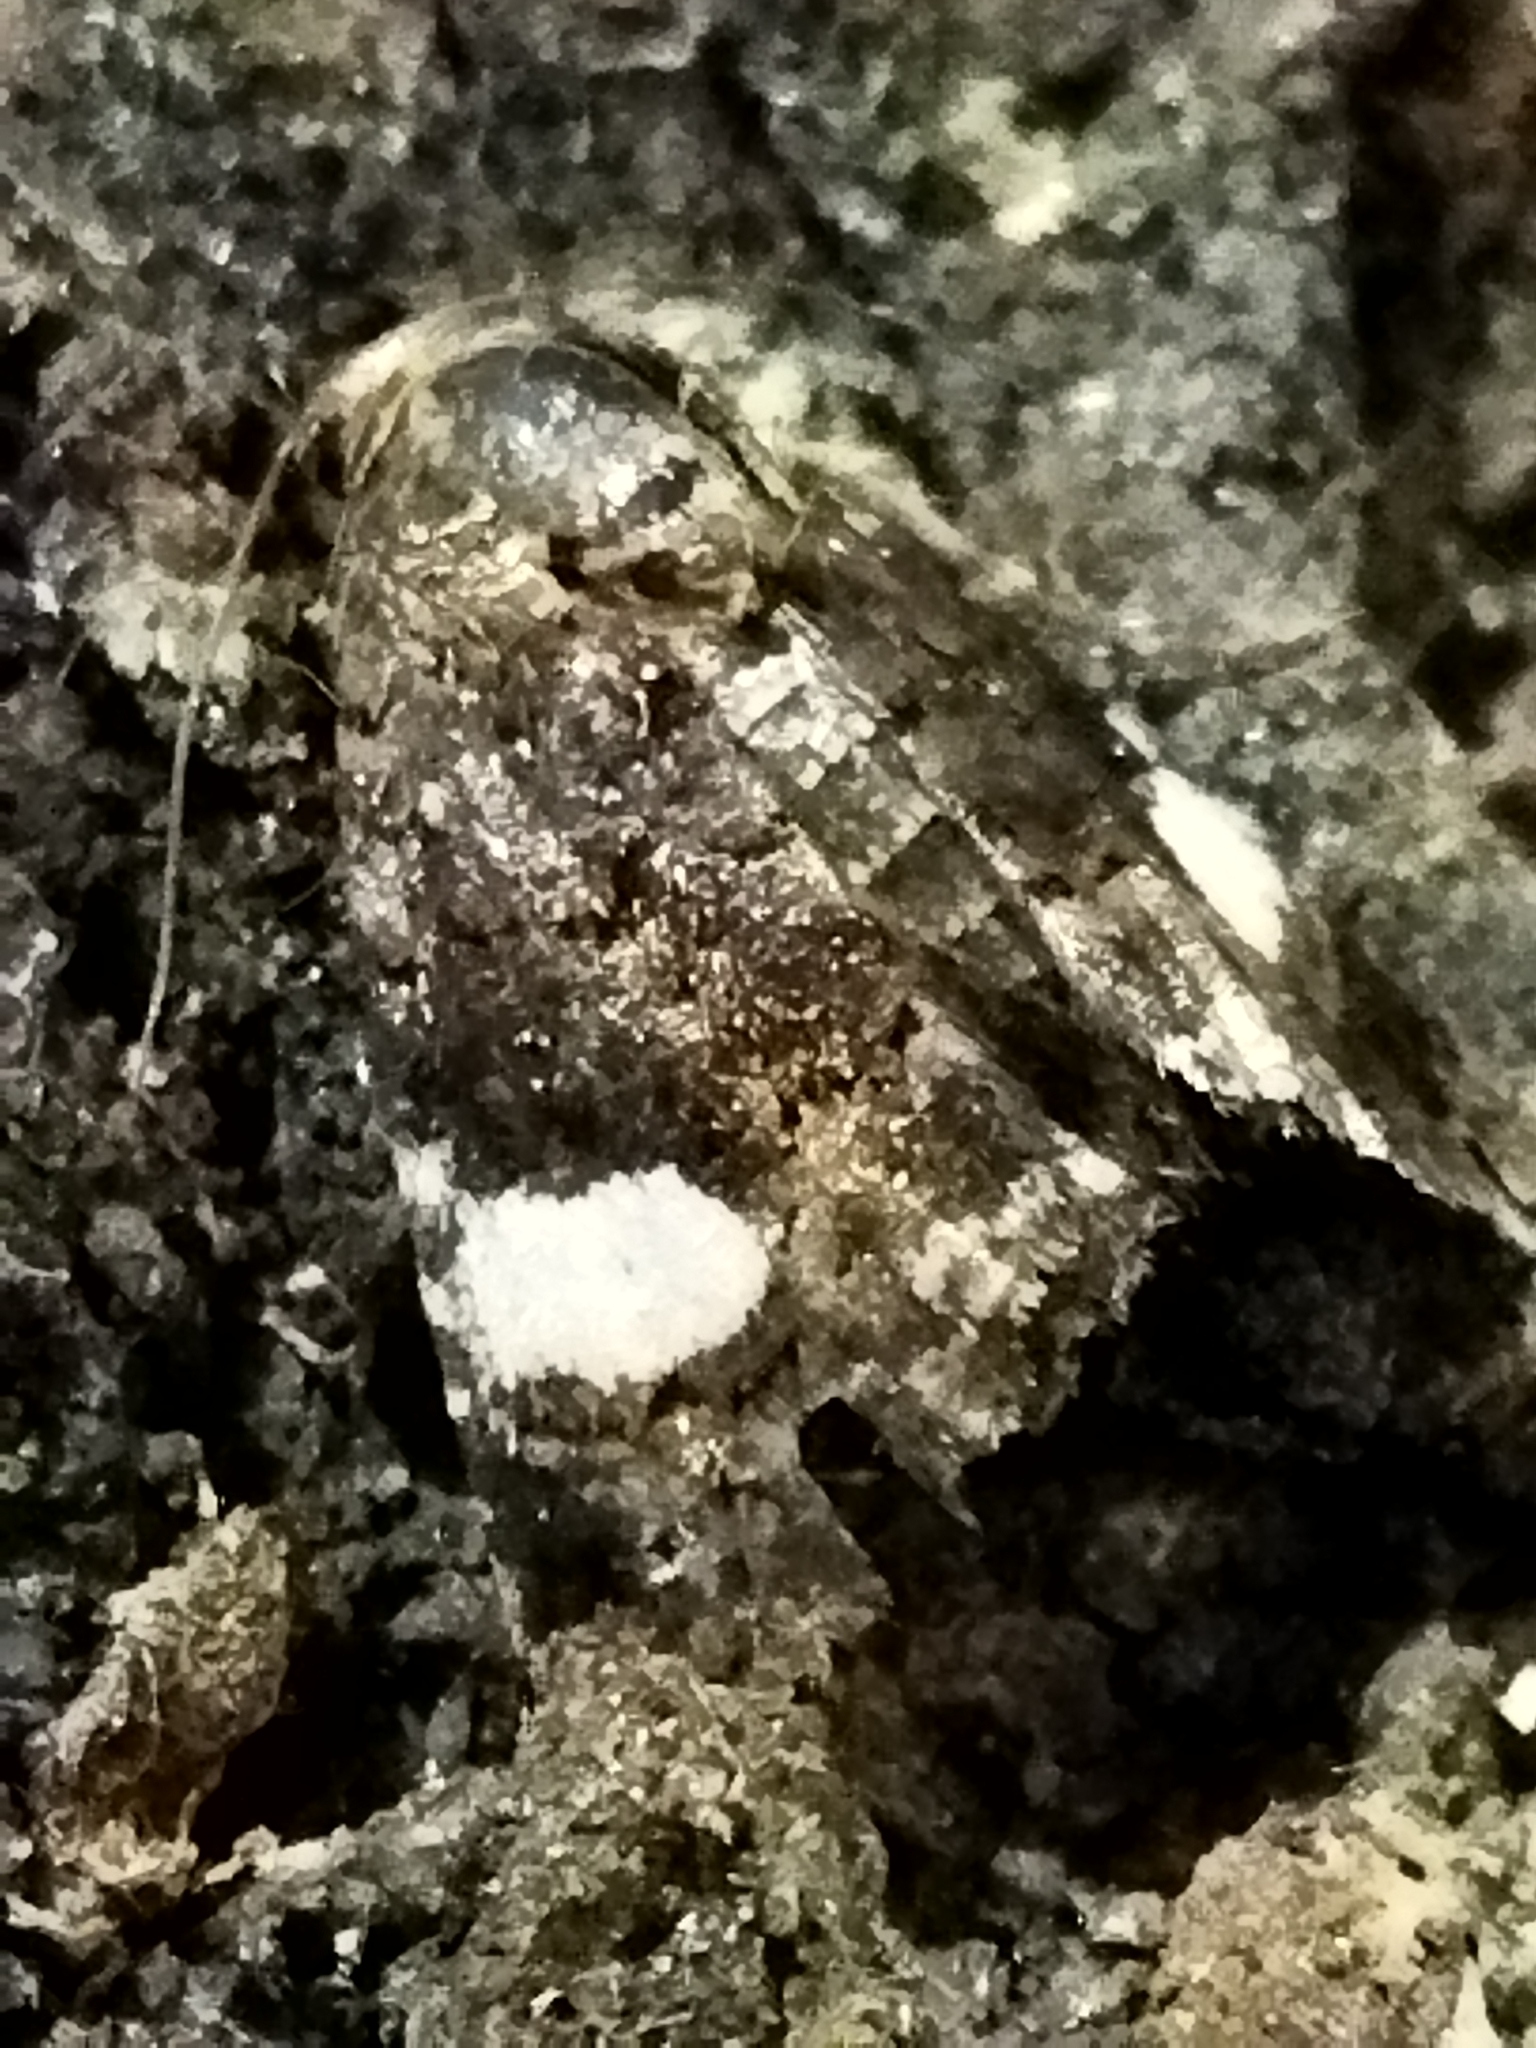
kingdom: Animalia
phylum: Arthropoda
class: Insecta
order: Lepidoptera
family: Erebidae
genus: Tyta
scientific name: Tyta luctuosa
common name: Four-spotted
